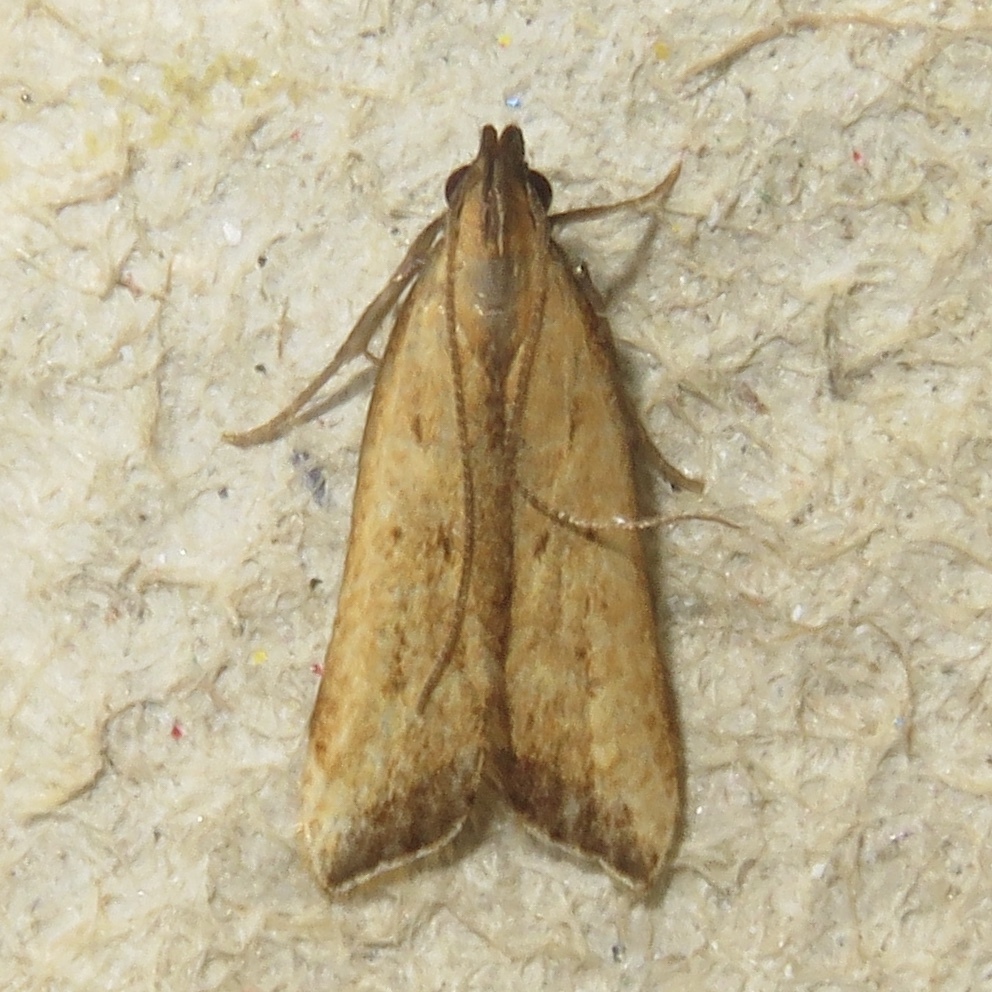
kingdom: Animalia
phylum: Arthropoda
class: Insecta
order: Lepidoptera
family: Gelechiidae
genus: Dichomeris
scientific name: Dichomeris heriguronis
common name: Black-edged dichomeris moth
